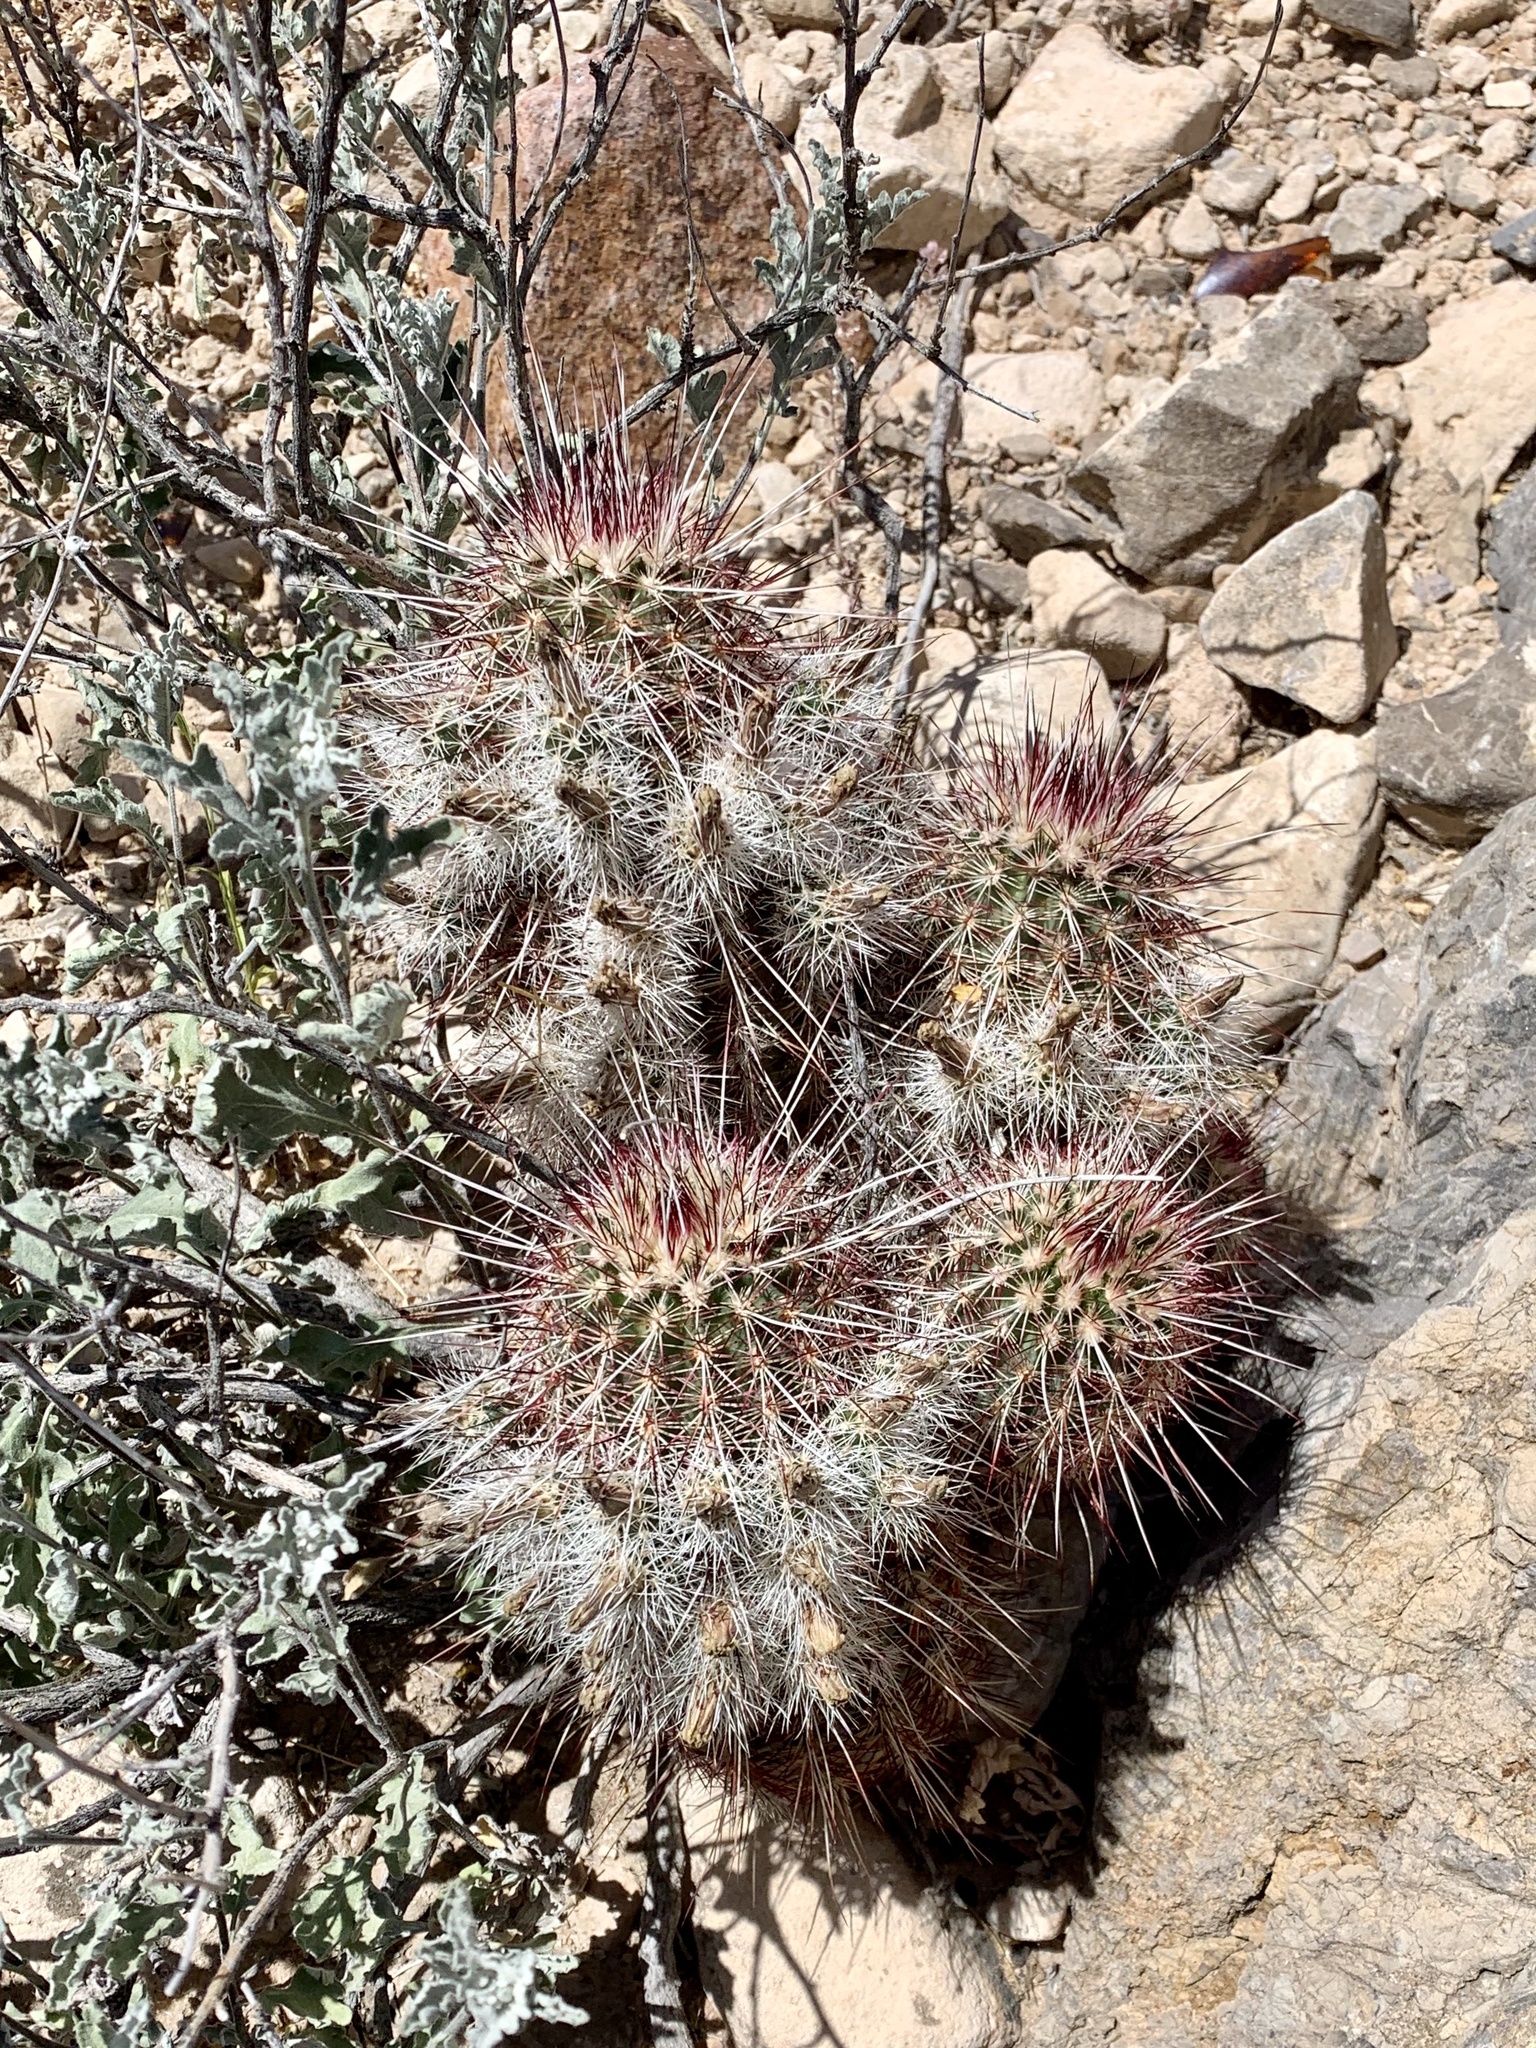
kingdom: Plantae
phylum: Tracheophyta
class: Magnoliopsida
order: Caryophyllales
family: Cactaceae
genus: Echinocereus
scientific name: Echinocereus viridiflorus
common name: Nylon hedgehog cactus
